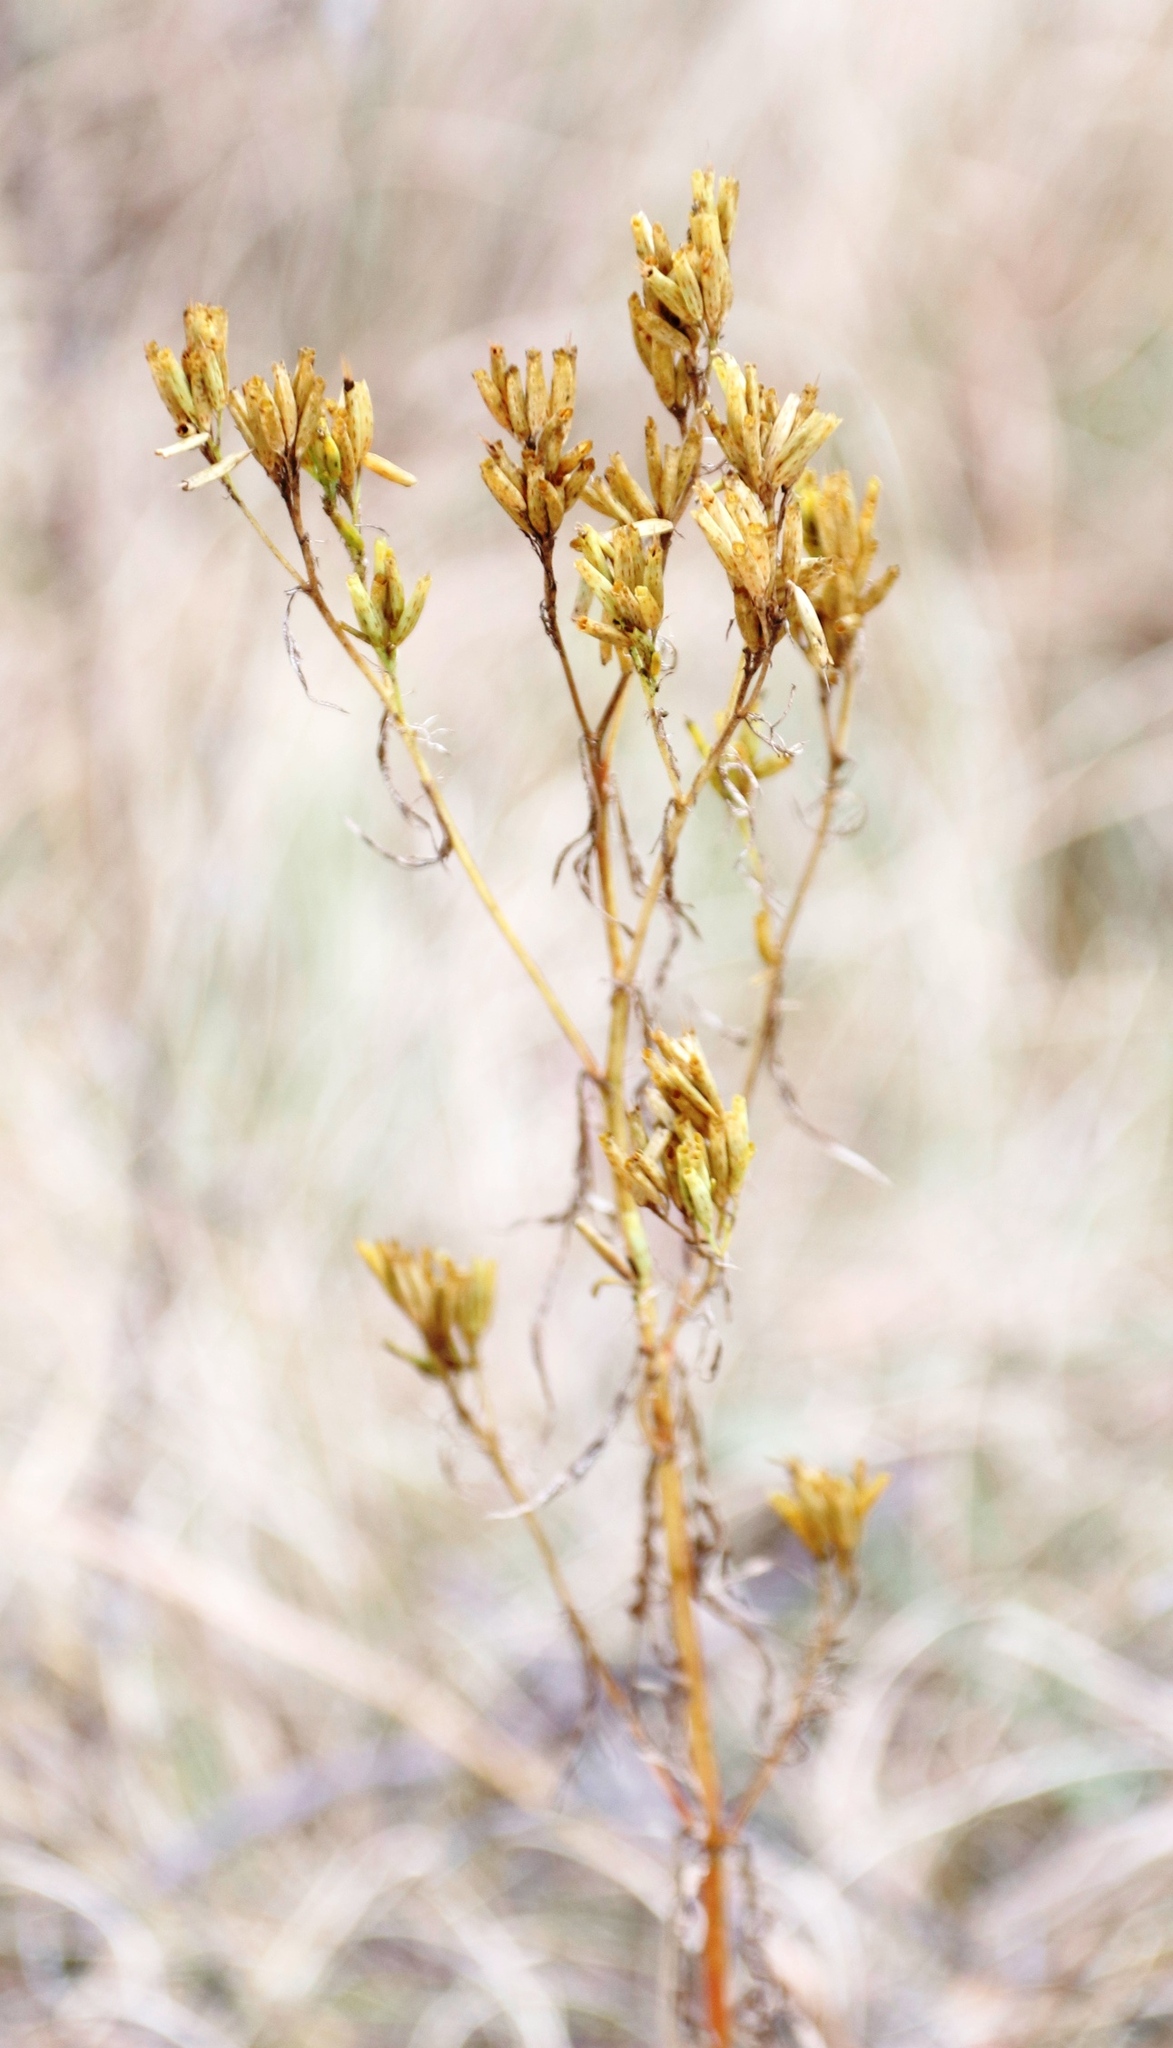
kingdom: Plantae
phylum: Tracheophyta
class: Magnoliopsida
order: Asterales
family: Asteraceae
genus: Tagetes
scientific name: Tagetes minuta
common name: Muster john henry
